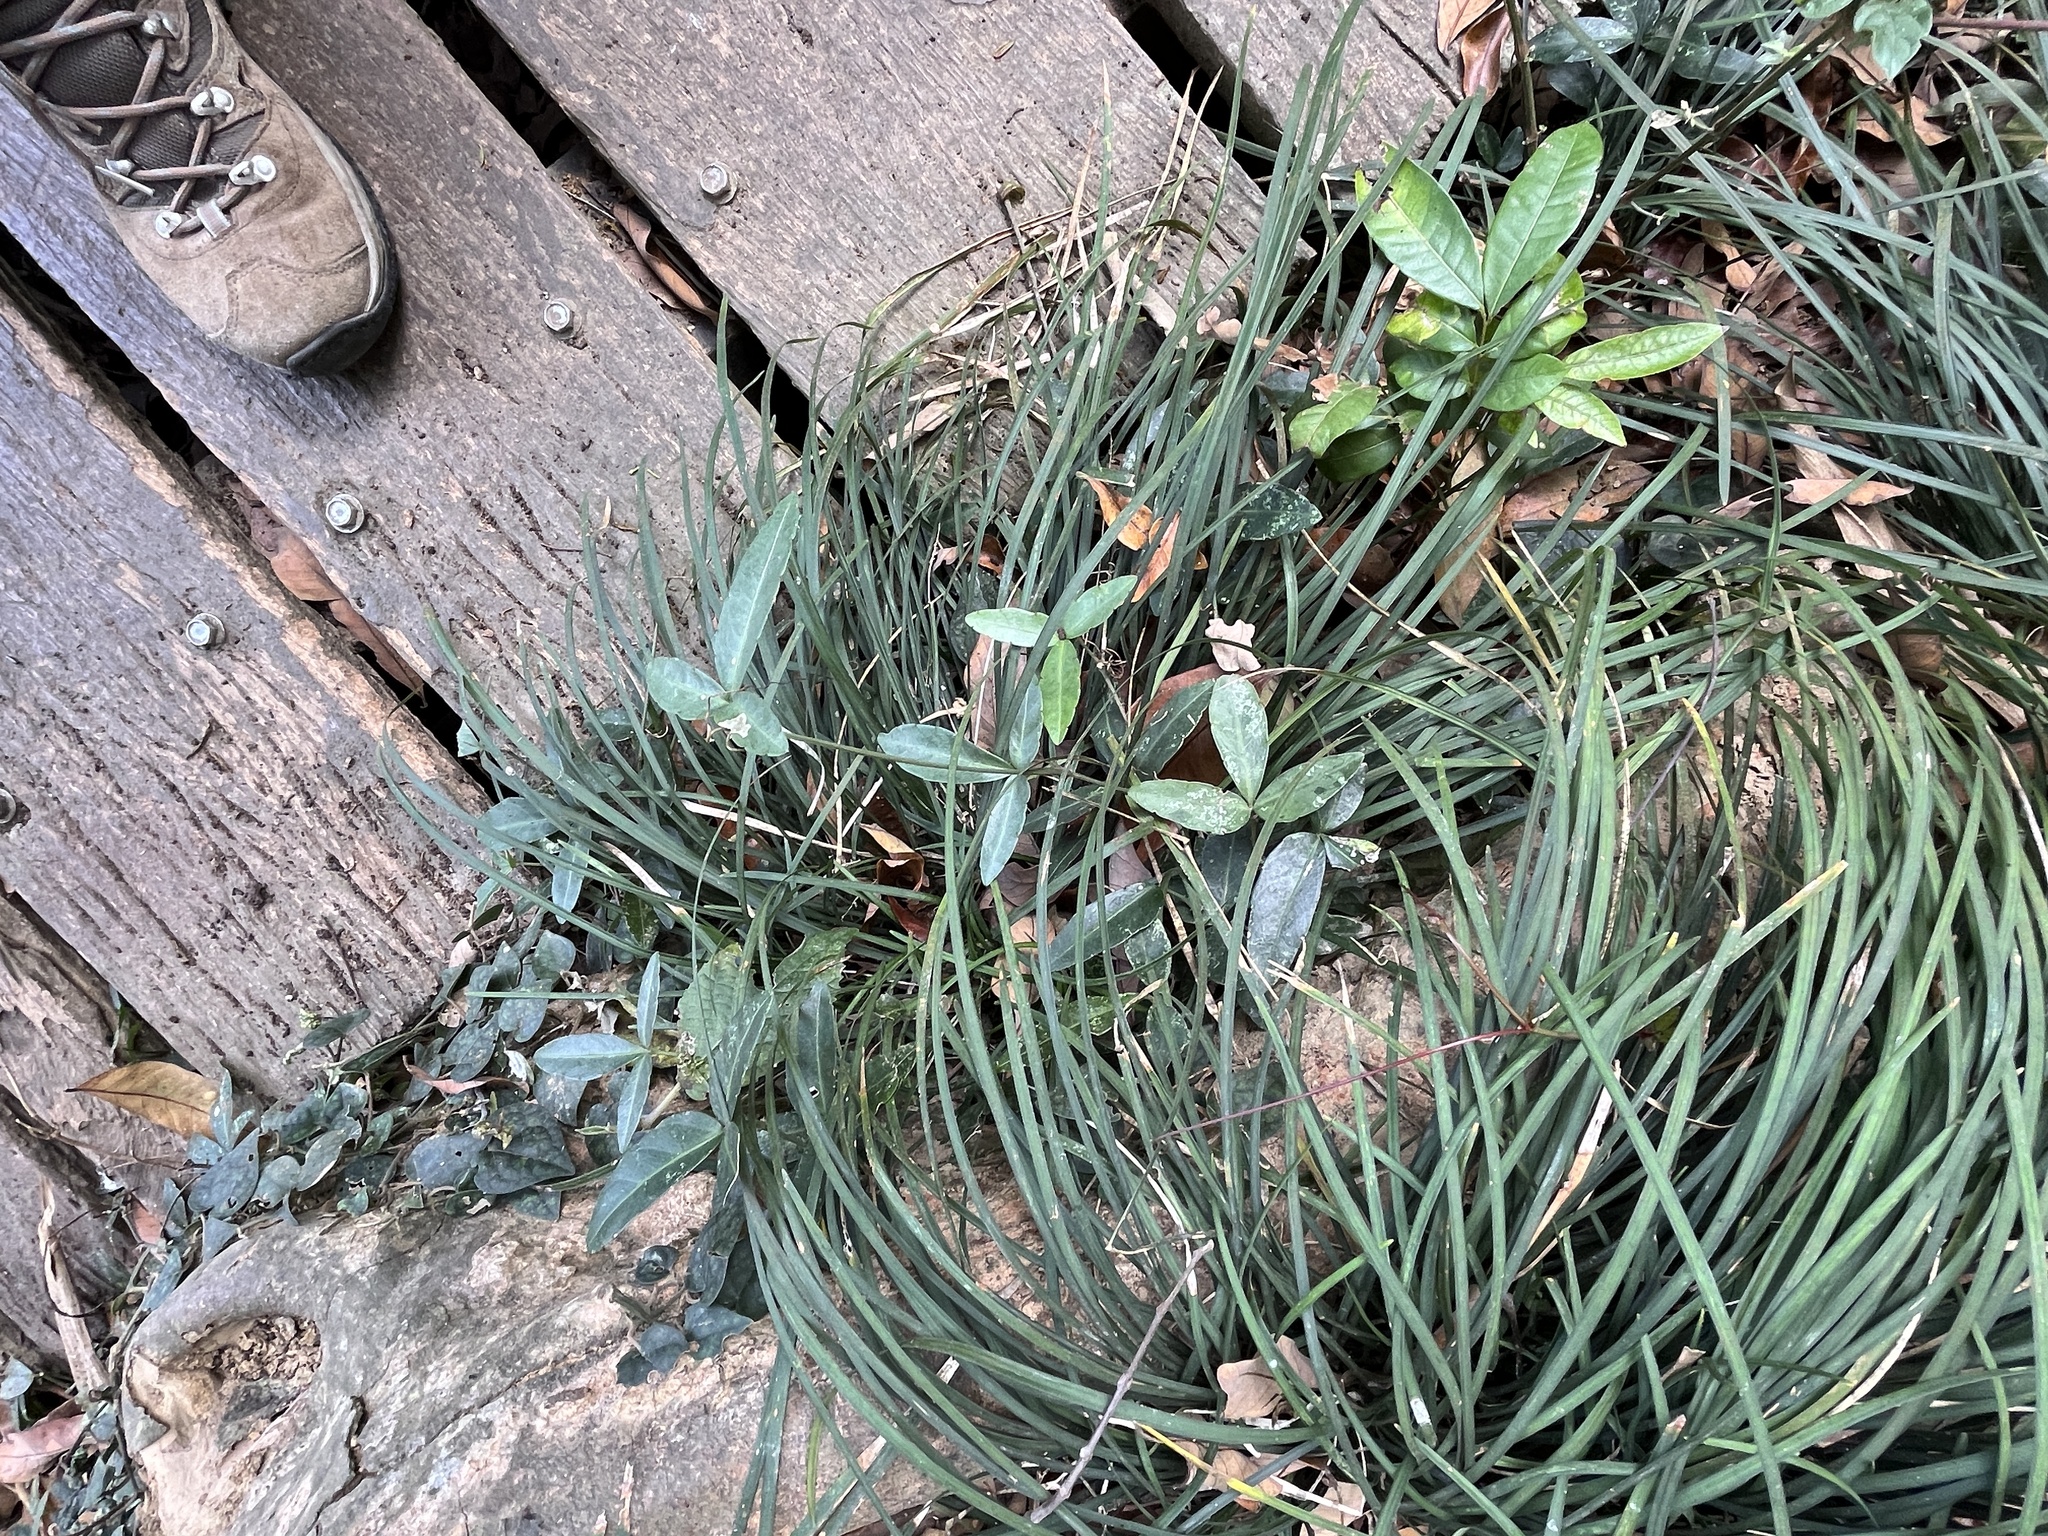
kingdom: Plantae
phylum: Tracheophyta
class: Magnoliopsida
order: Vitales
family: Vitaceae
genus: Tetrastigma
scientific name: Tetrastigma formosanum
